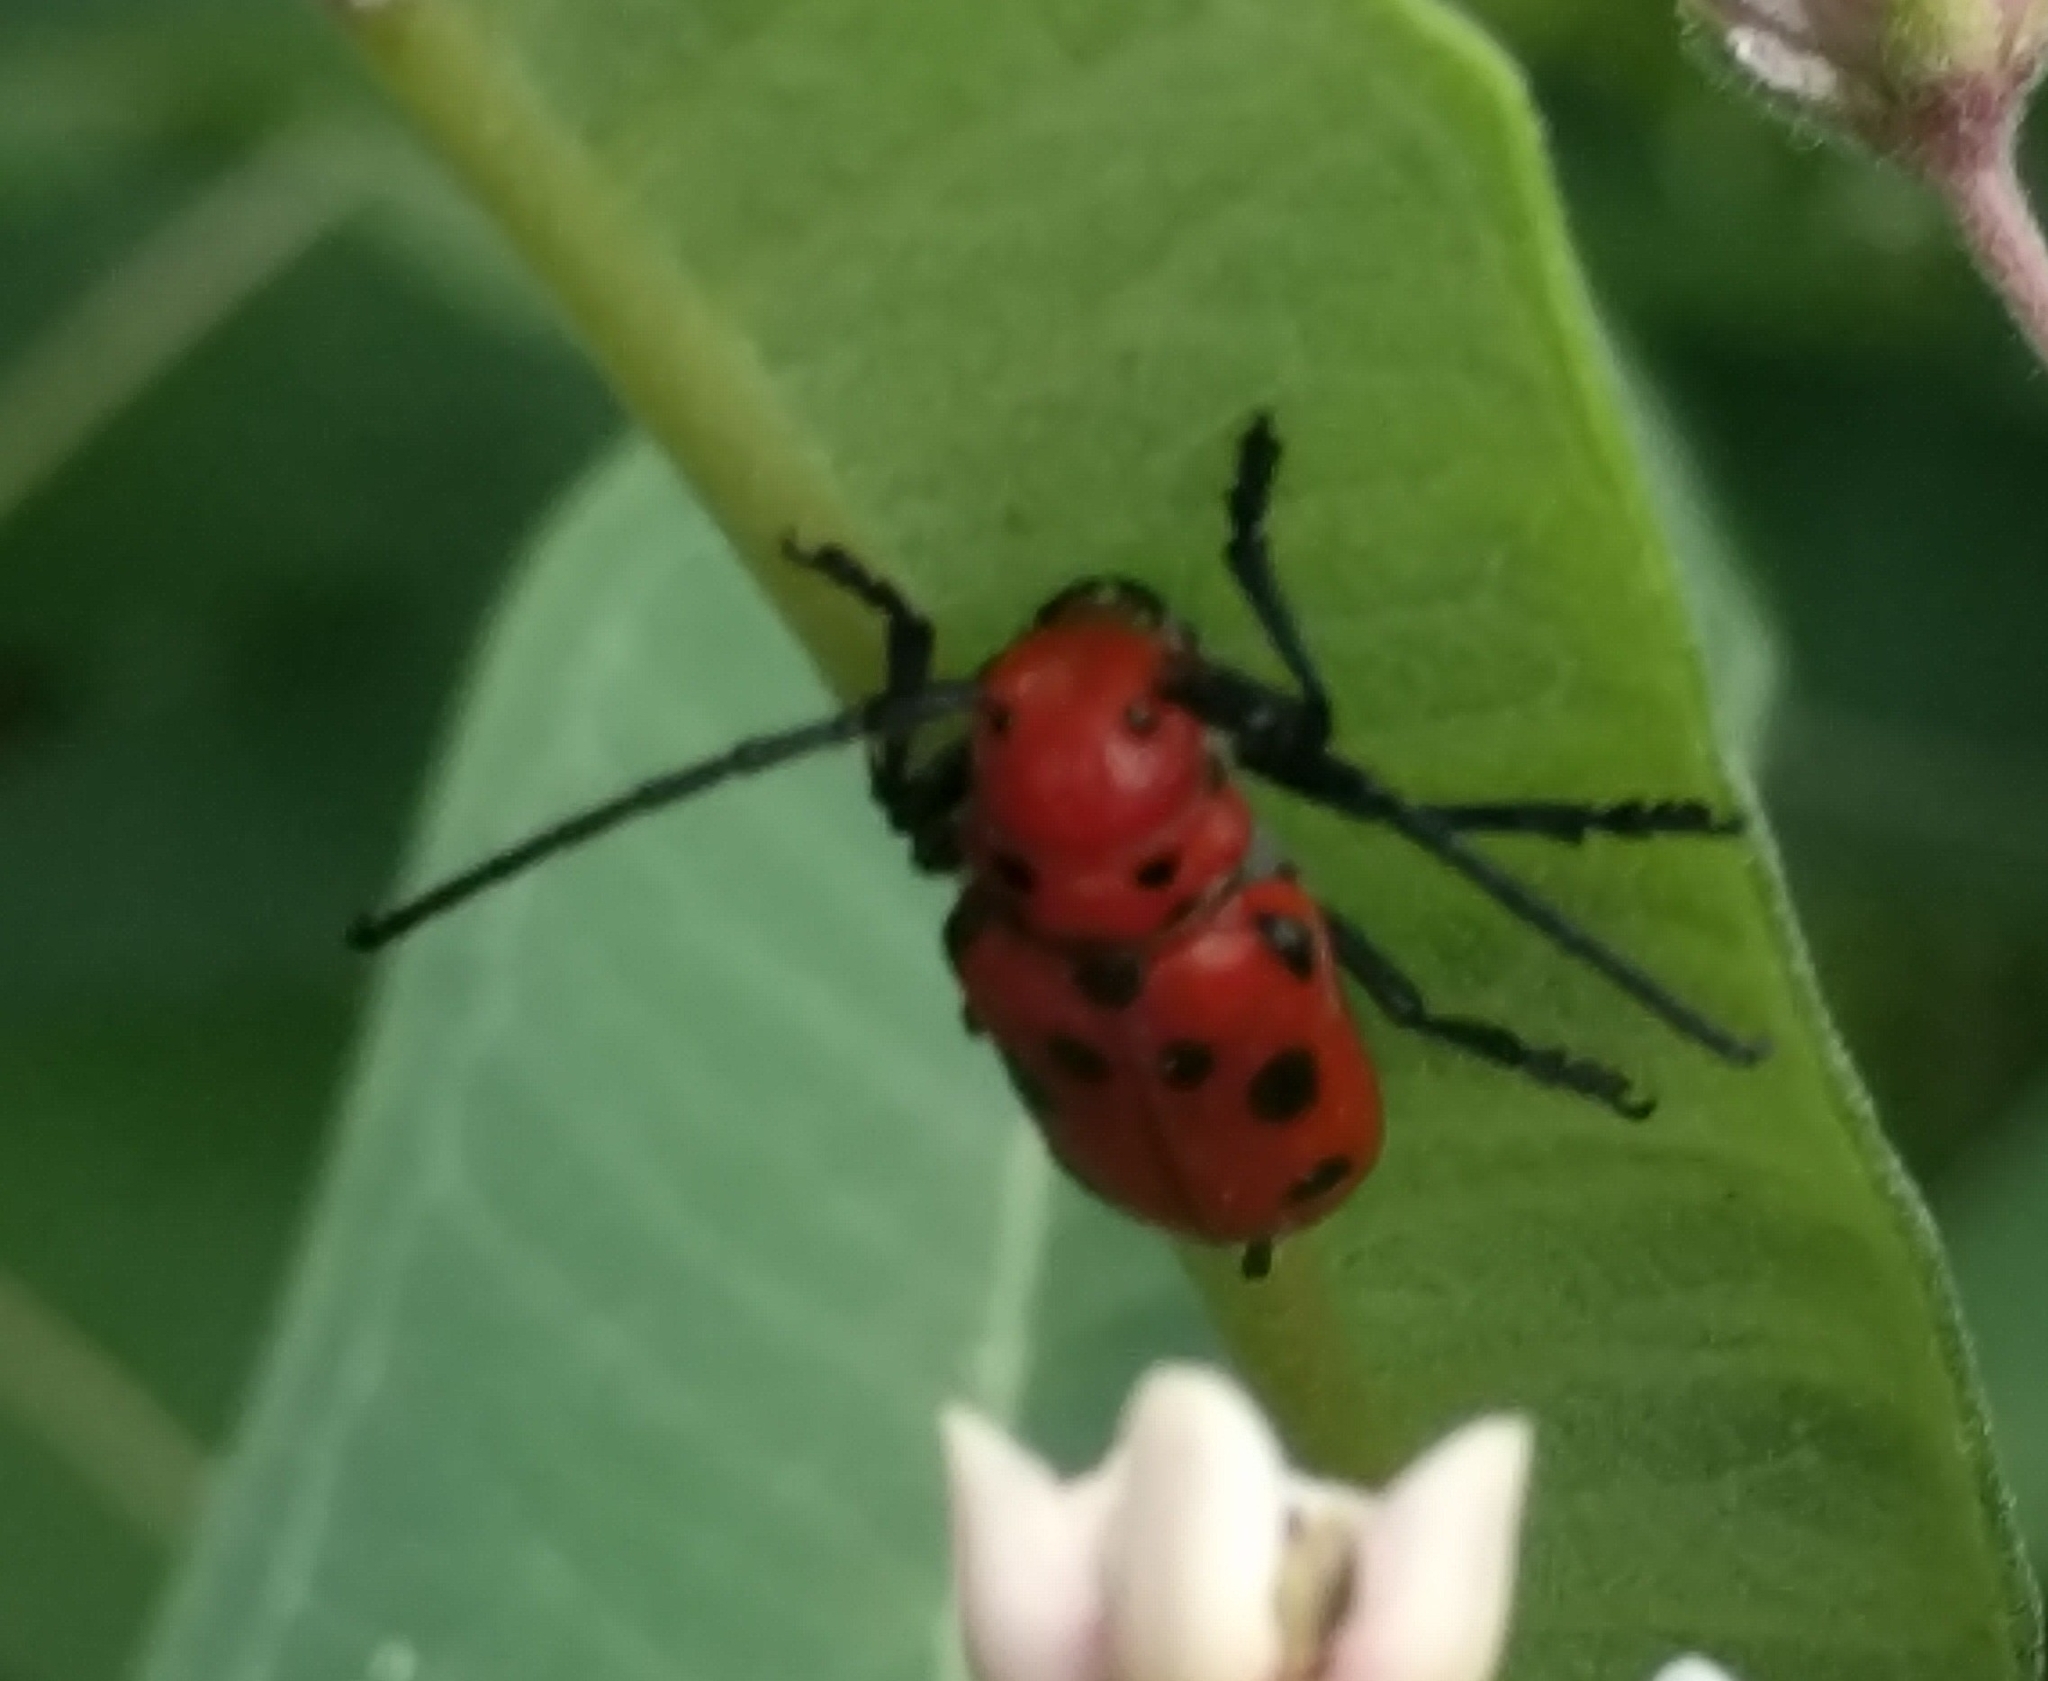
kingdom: Animalia
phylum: Arthropoda
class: Insecta
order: Coleoptera
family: Cerambycidae
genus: Tetraopes
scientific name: Tetraopes tetrophthalmus
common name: Red milkweed beetle
